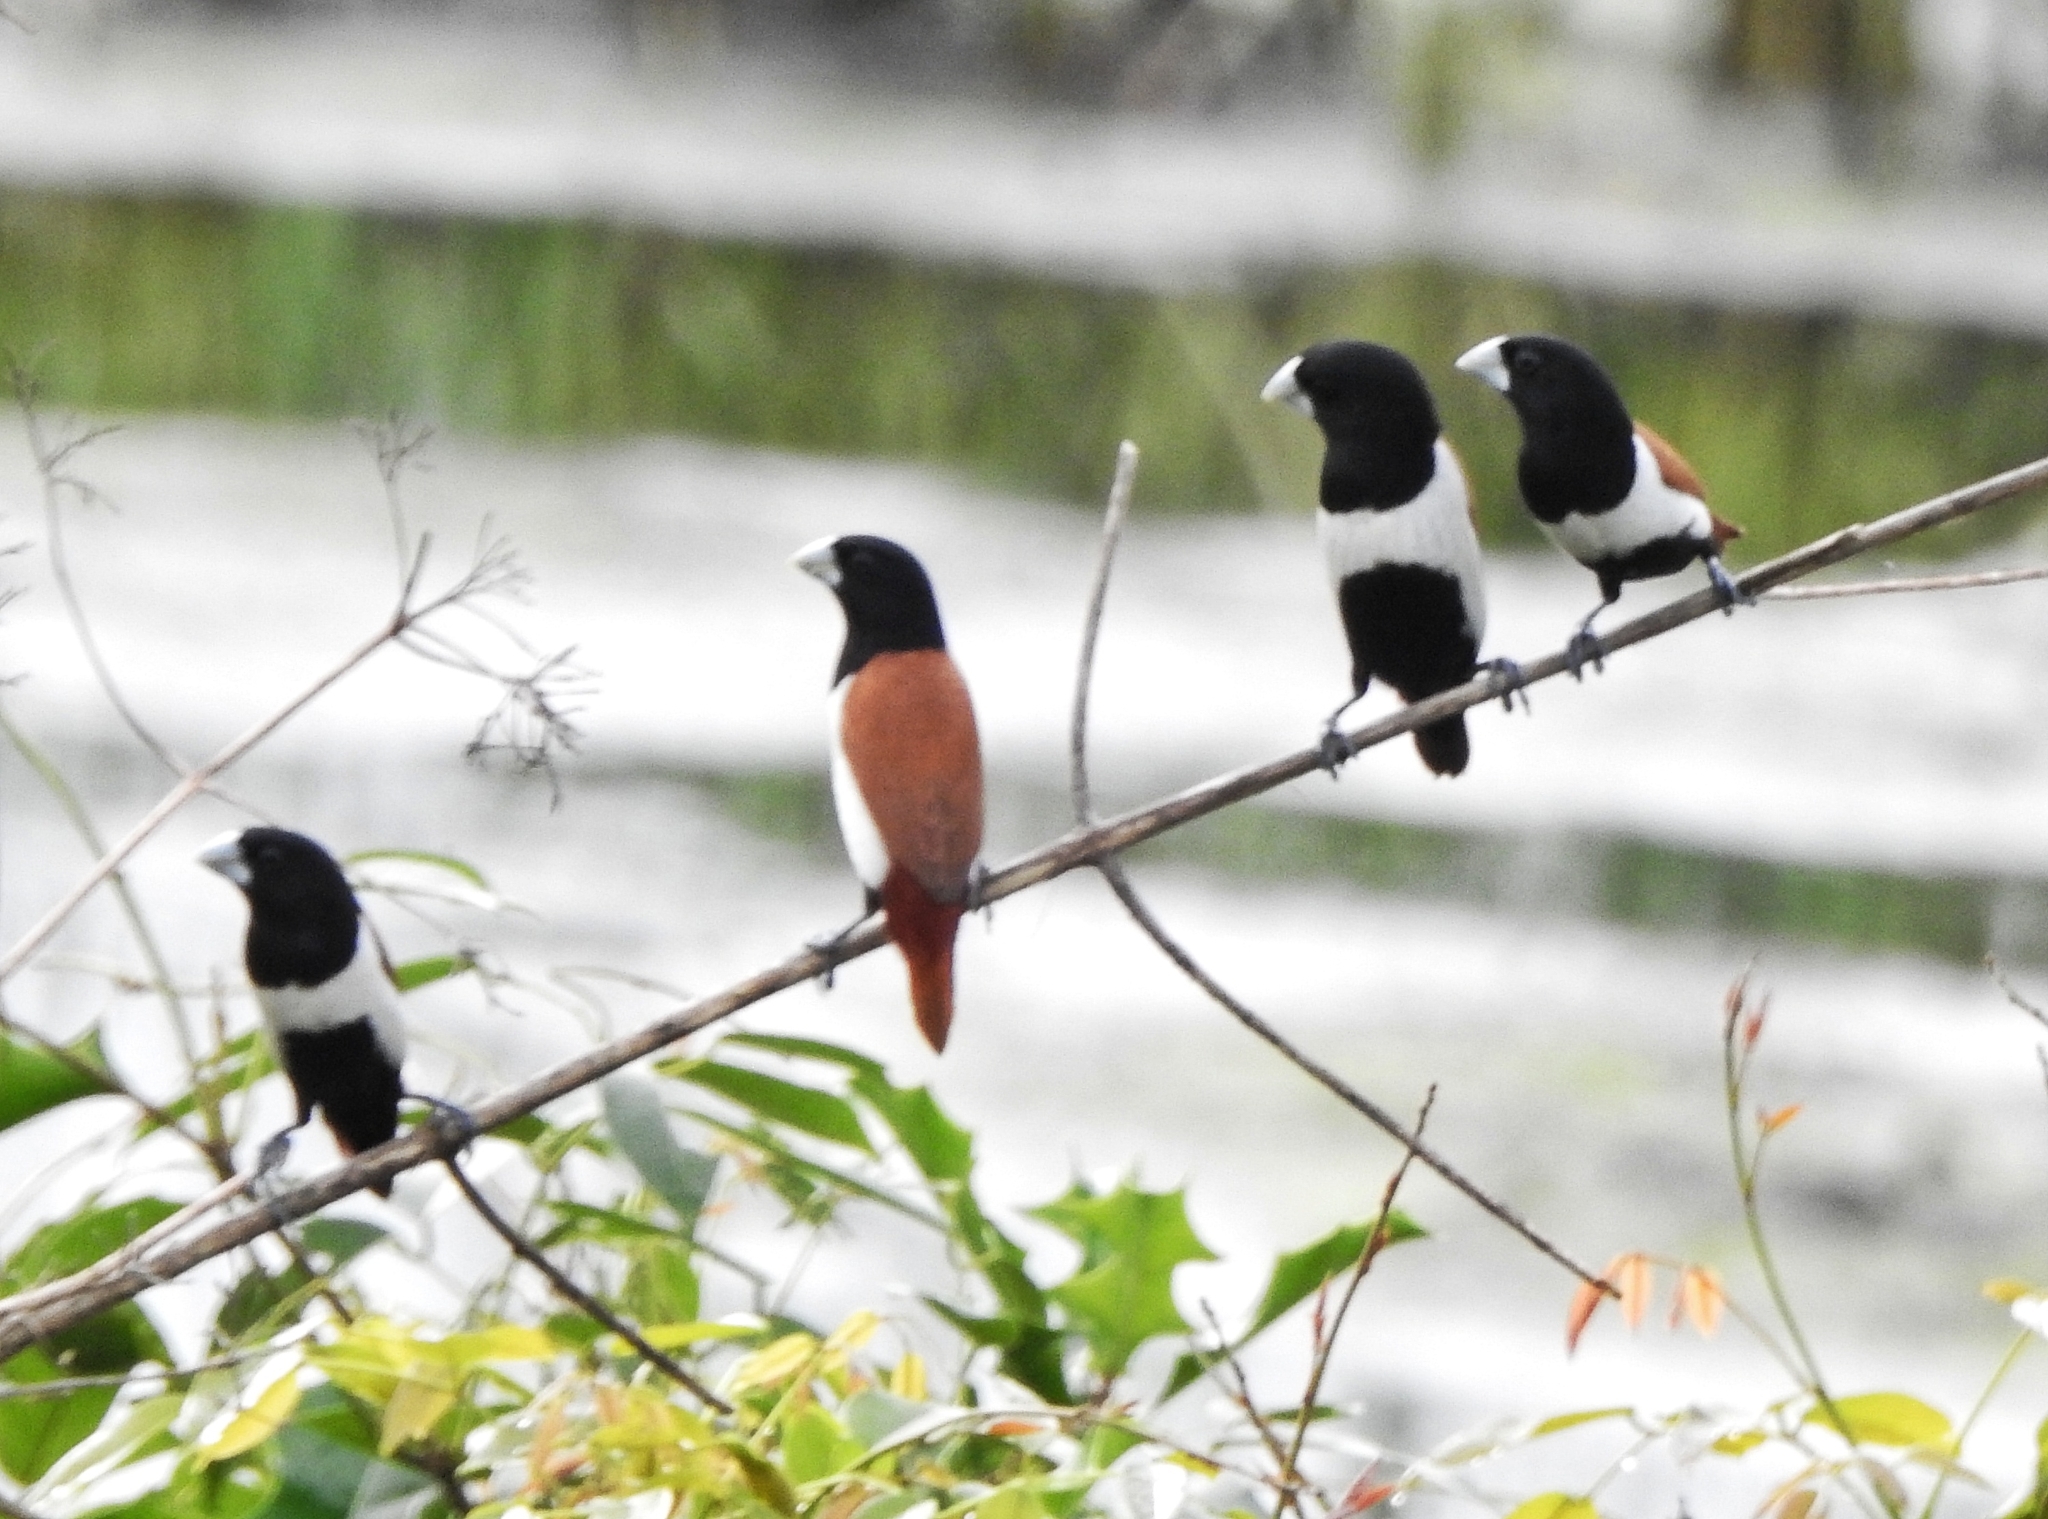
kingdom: Animalia
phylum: Chordata
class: Aves
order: Passeriformes
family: Estrildidae
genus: Lonchura
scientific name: Lonchura malacca
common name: Tricolored munia
